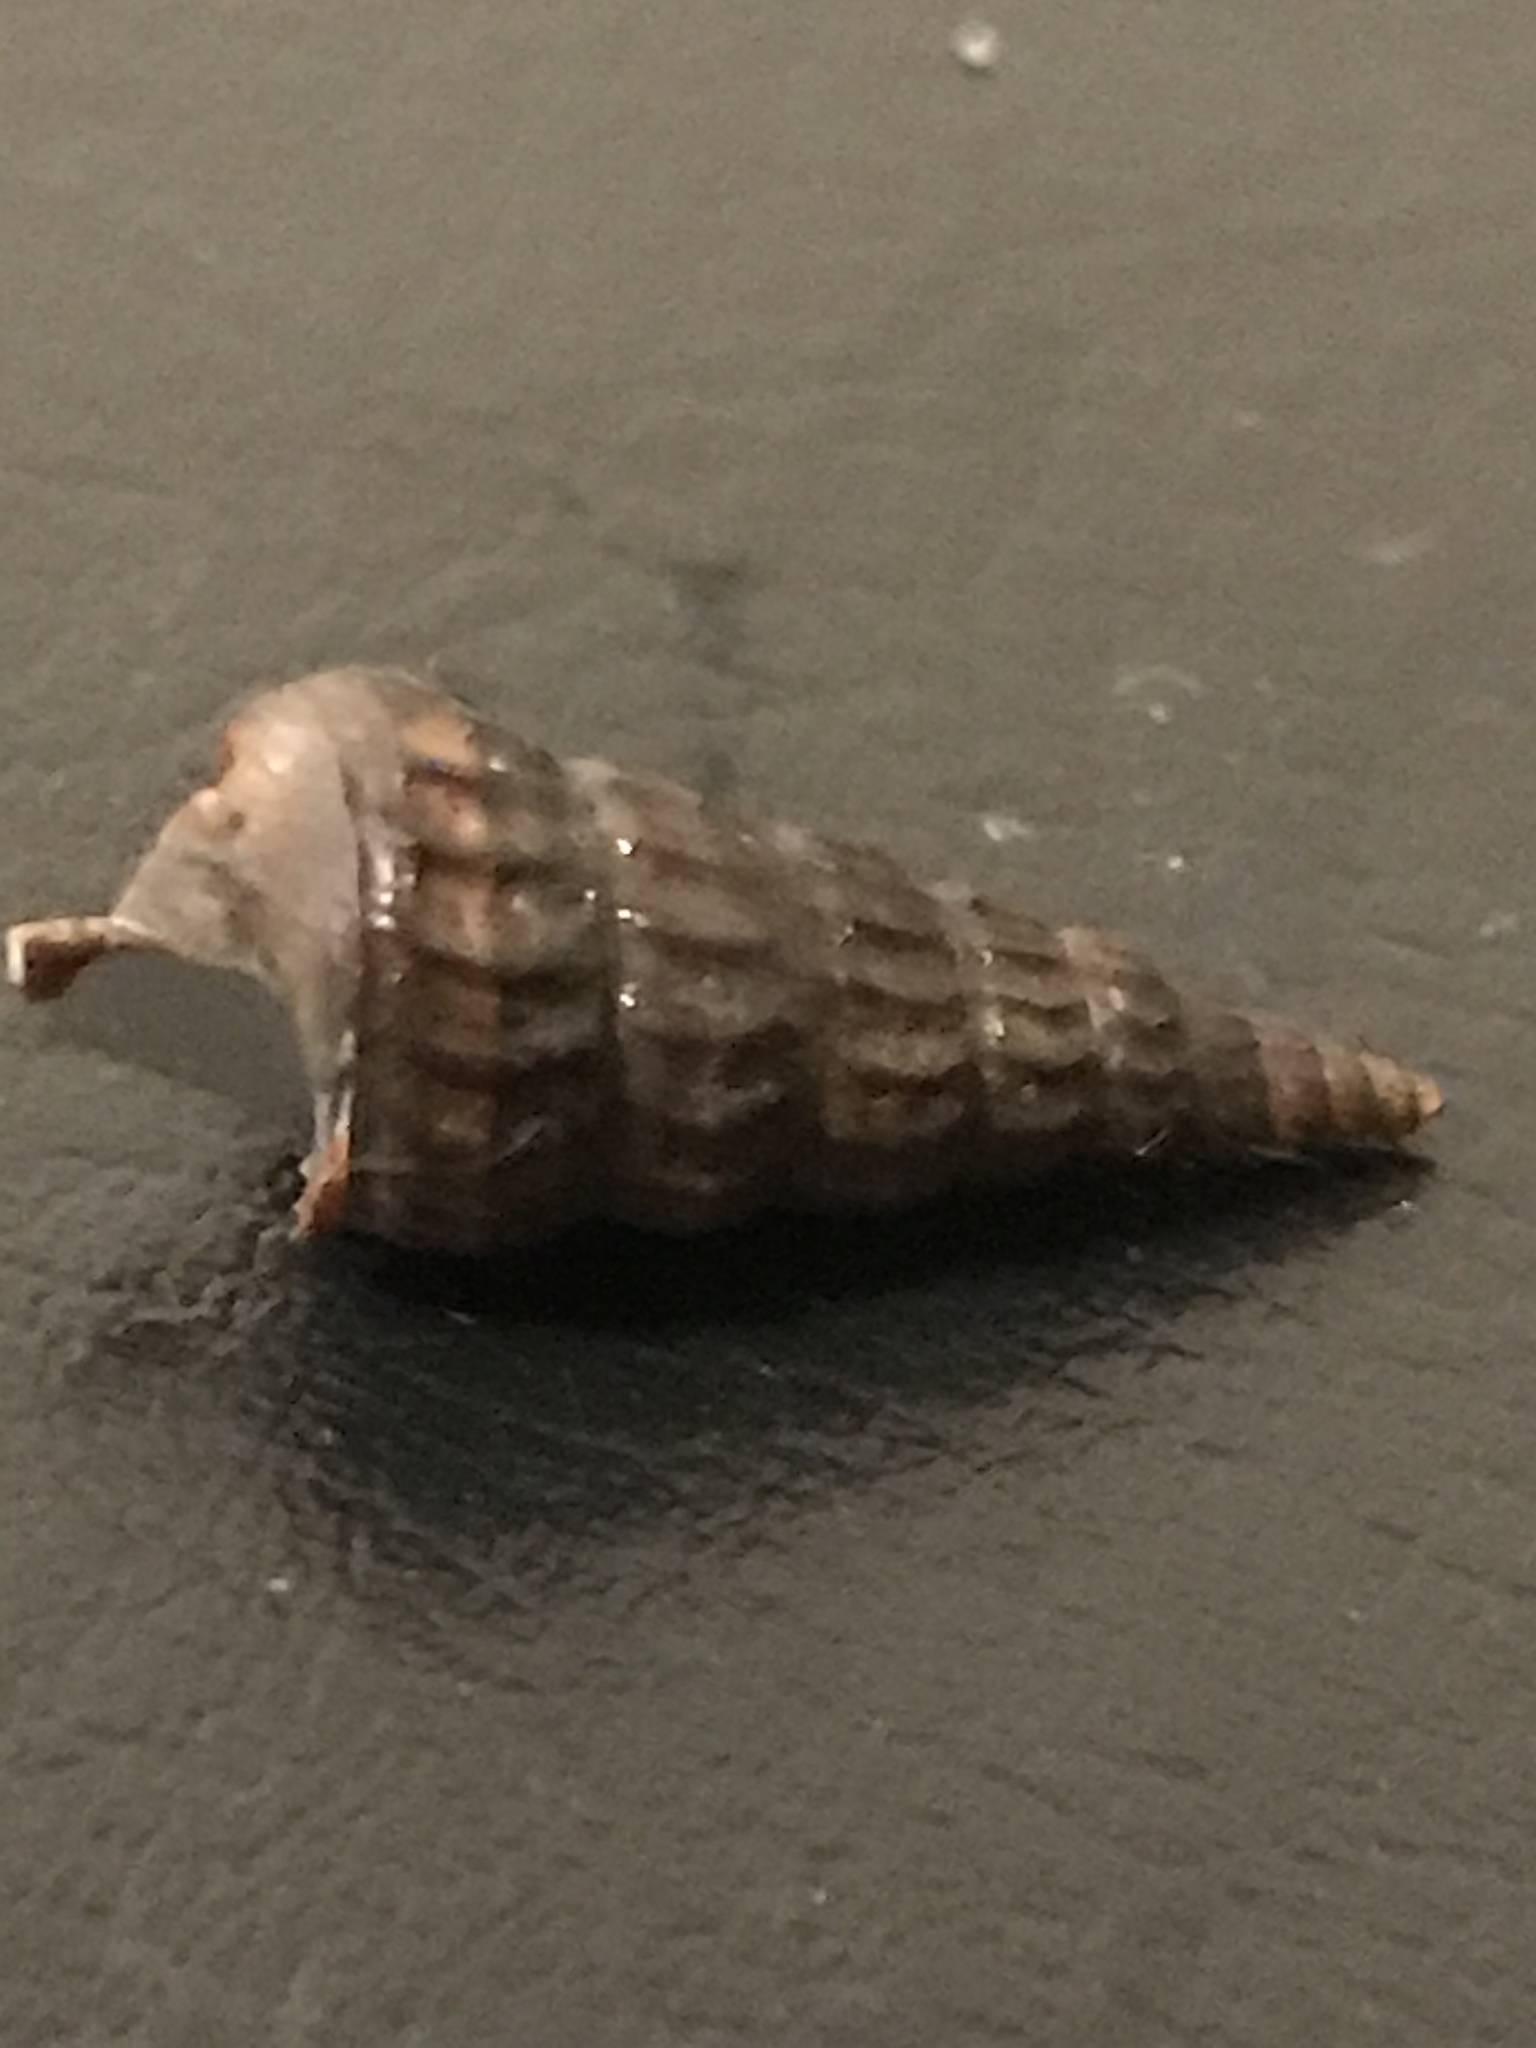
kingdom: Animalia
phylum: Mollusca
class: Gastropoda
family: Potamididae
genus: Cerithideopsis
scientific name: Cerithideopsis californica
